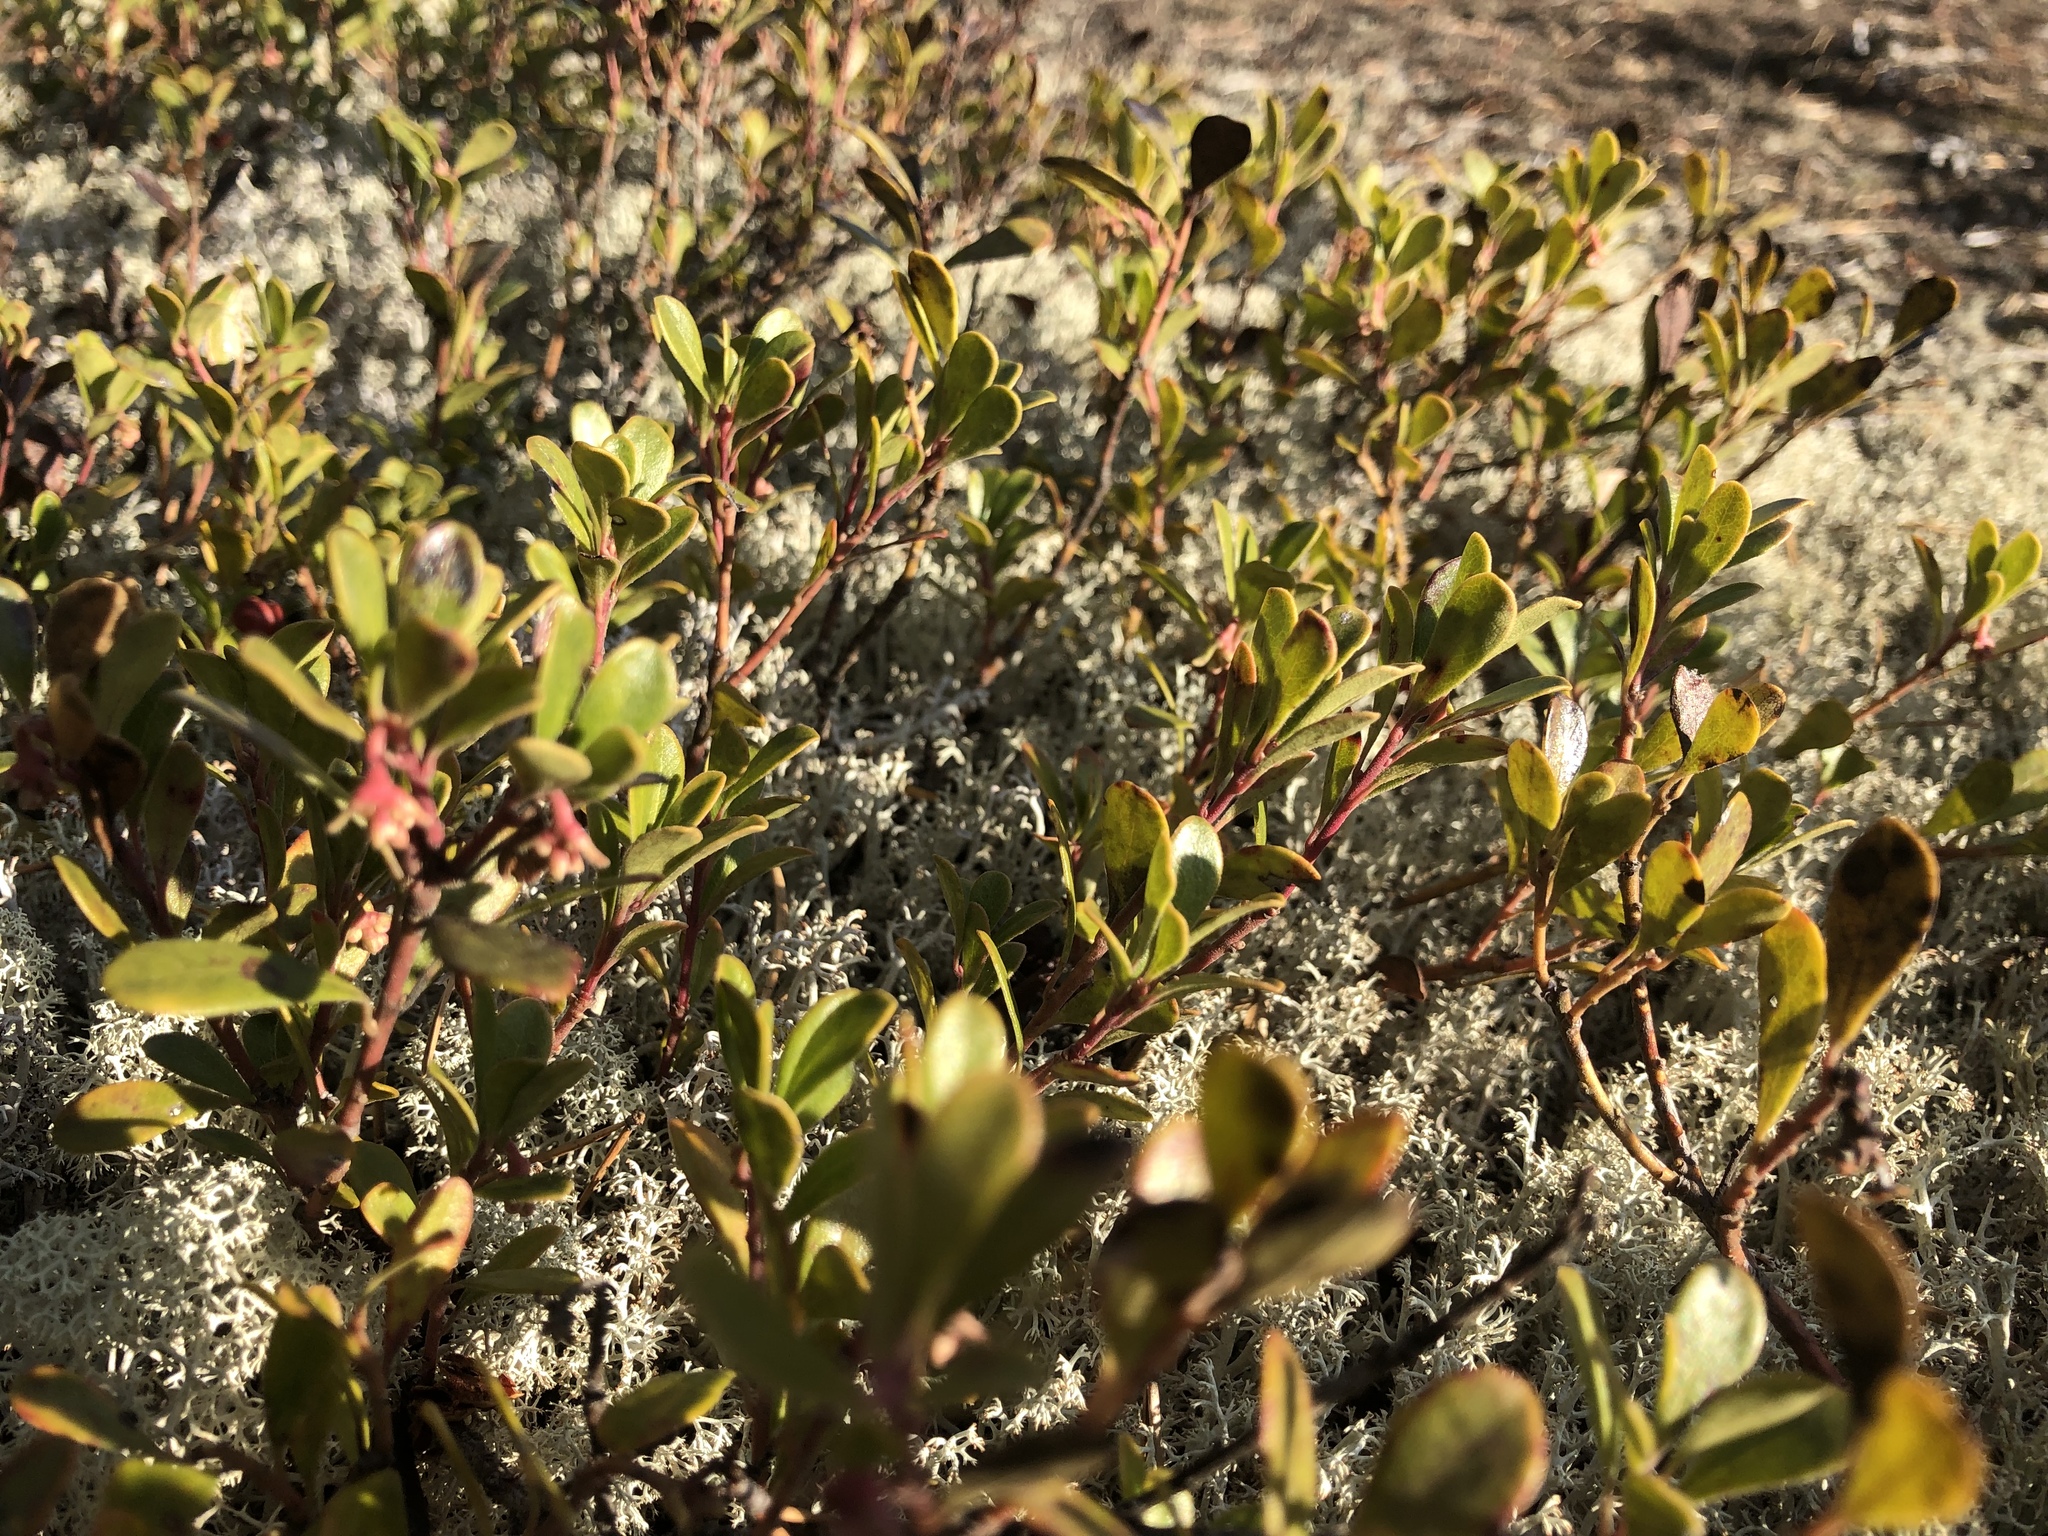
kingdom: Plantae
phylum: Tracheophyta
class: Magnoliopsida
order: Ericales
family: Ericaceae
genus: Arctostaphylos
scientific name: Arctostaphylos uva-ursi
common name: Bearberry
